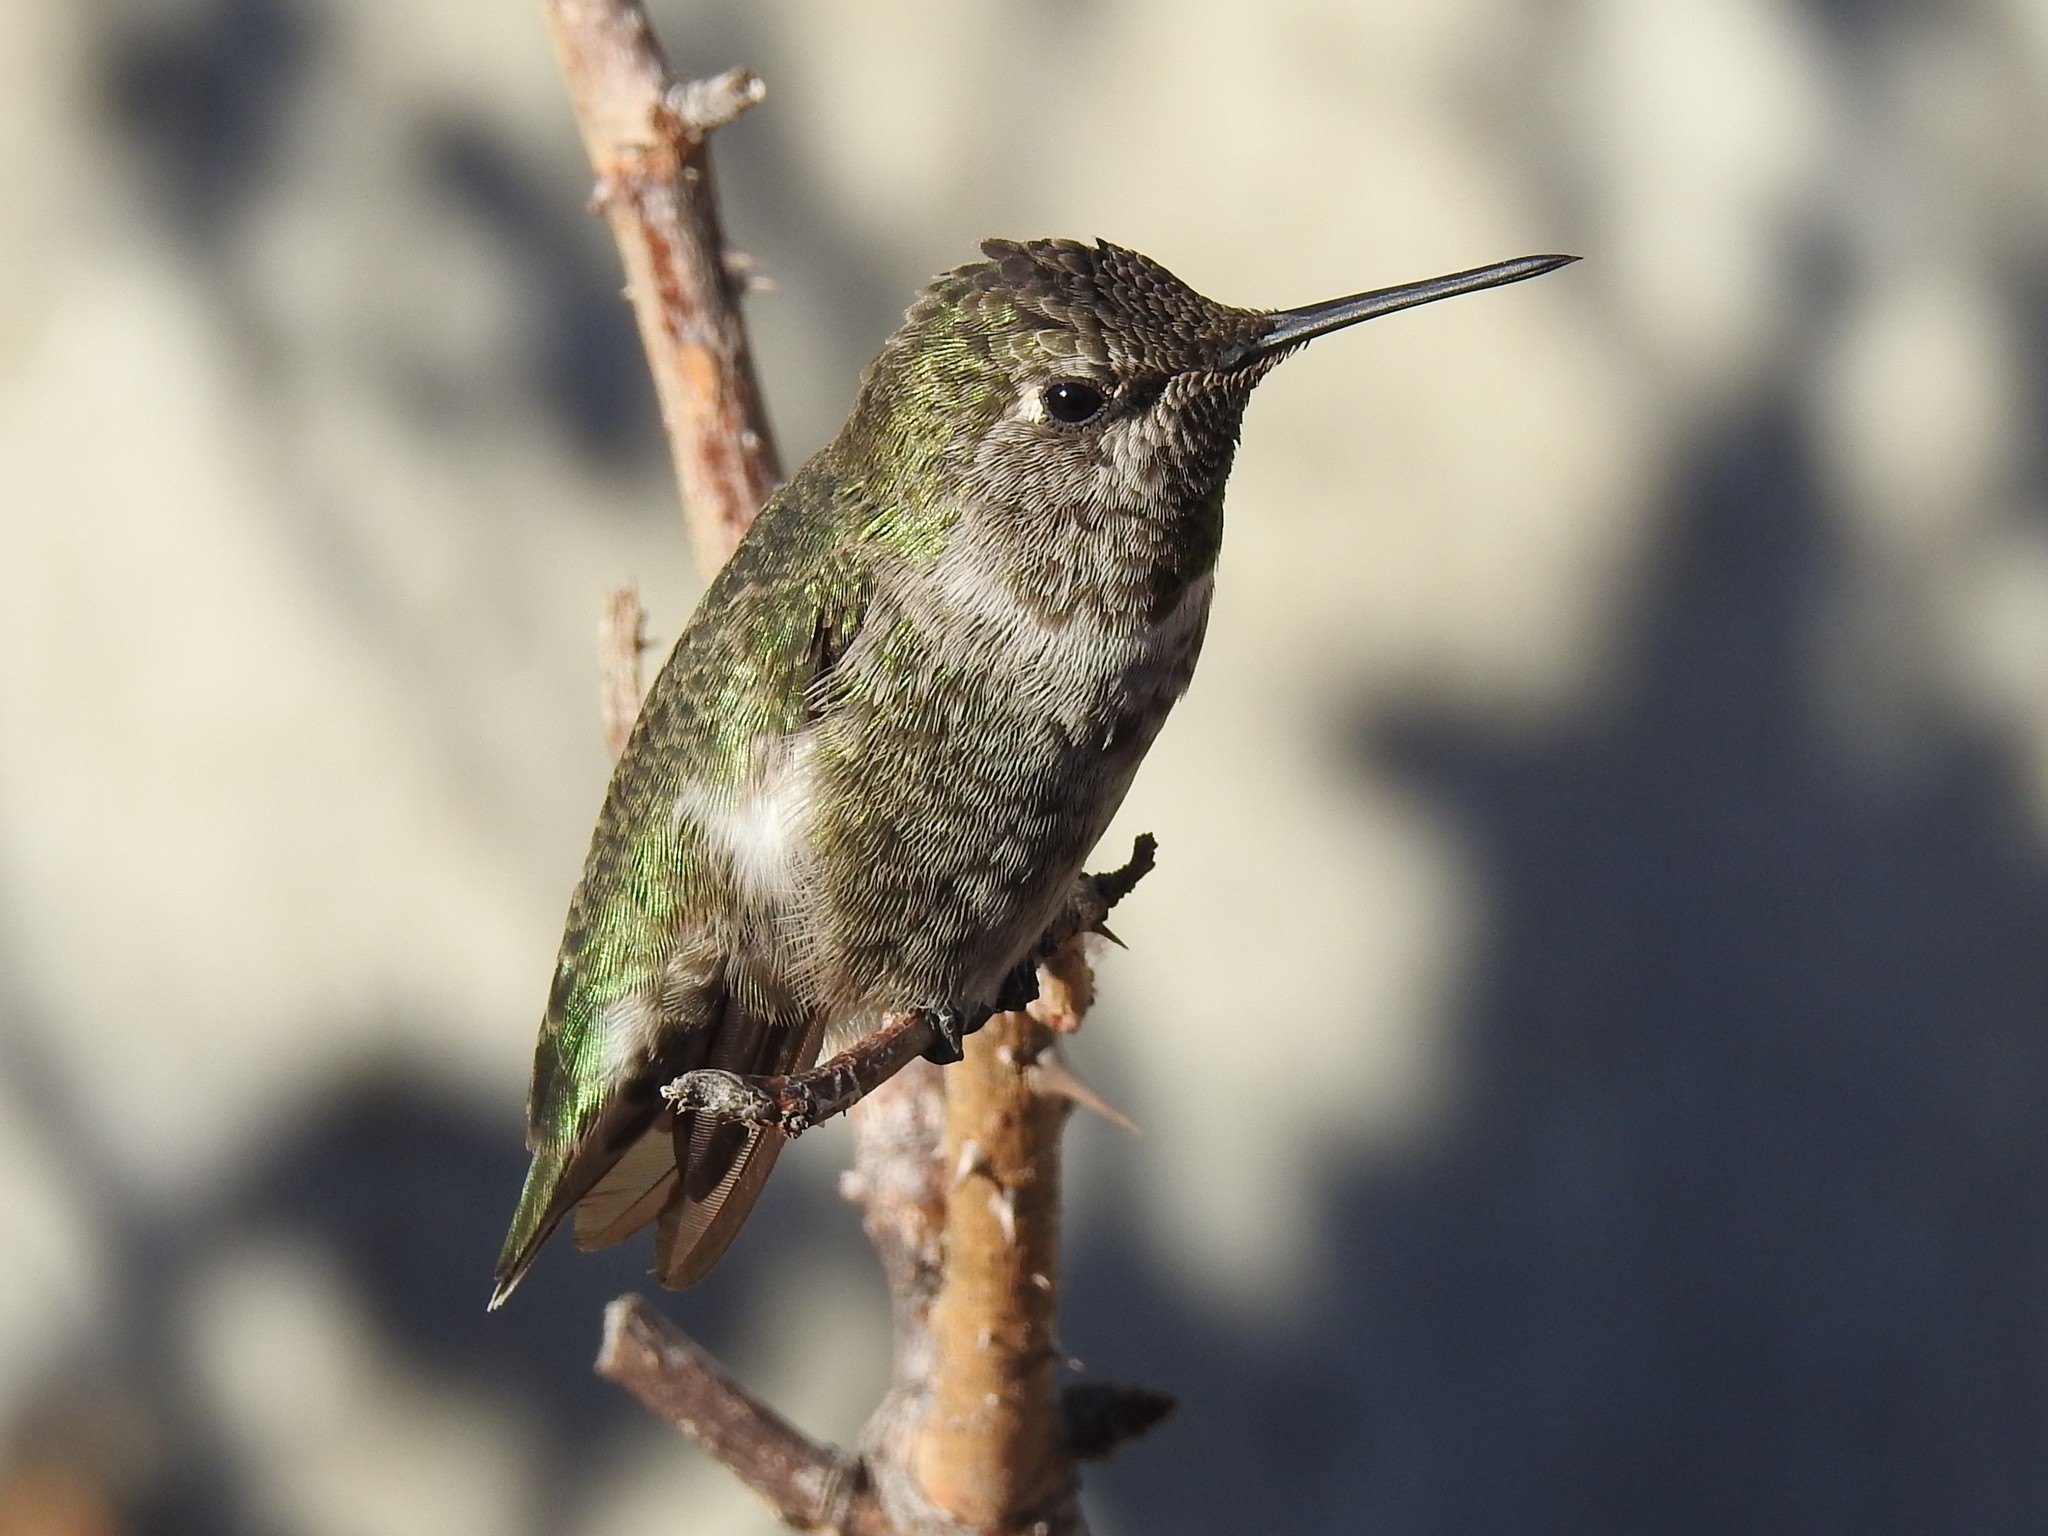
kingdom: Animalia
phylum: Chordata
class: Aves
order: Apodiformes
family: Trochilidae
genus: Calypte
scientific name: Calypte anna
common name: Anna's hummingbird
